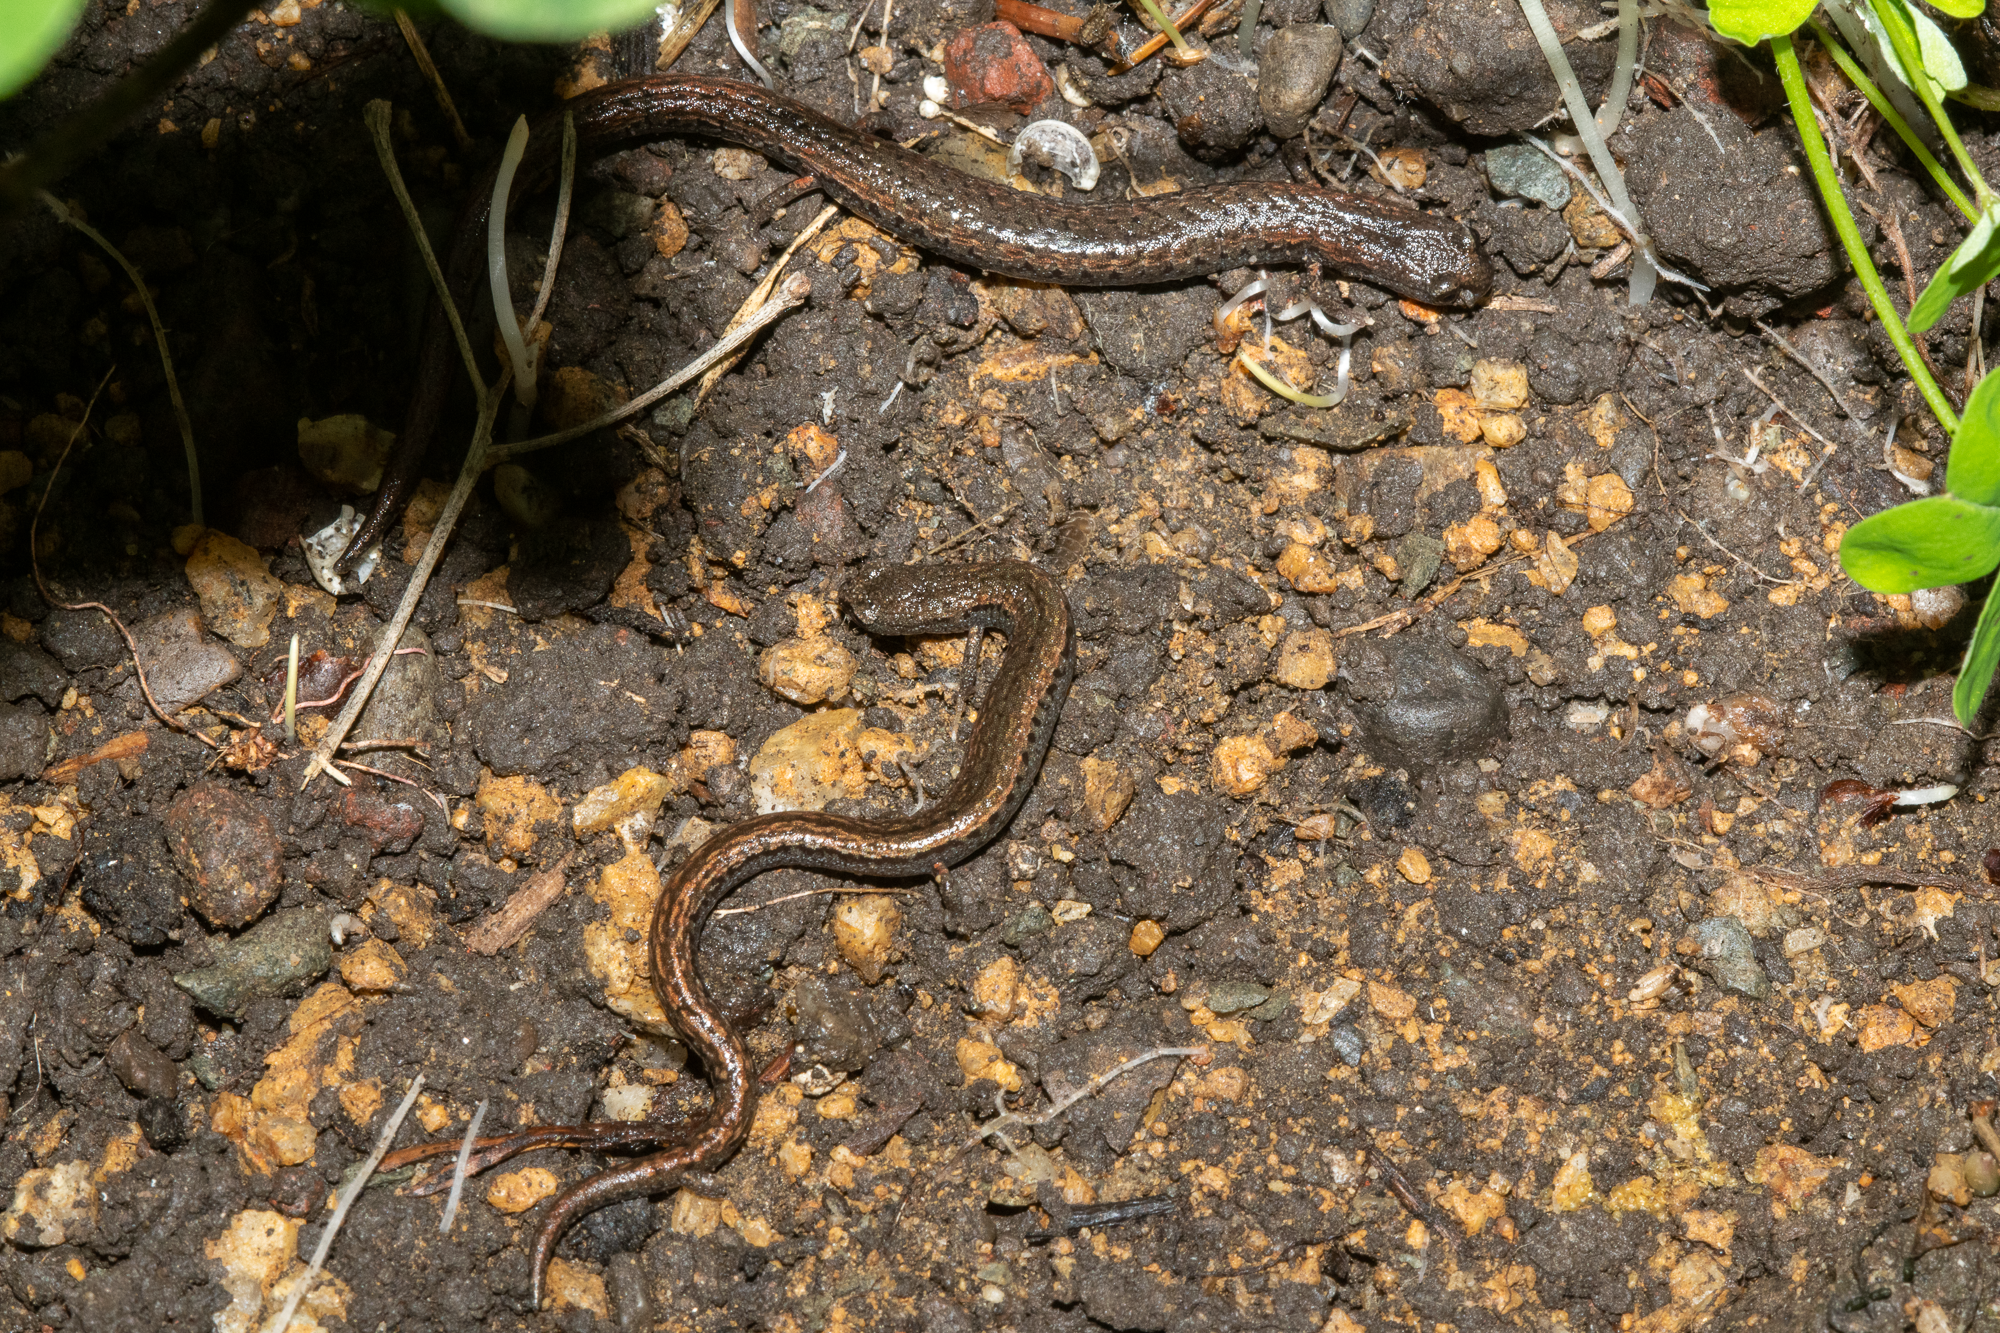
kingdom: Animalia
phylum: Chordata
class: Amphibia
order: Caudata
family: Plethodontidae
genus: Batrachoseps
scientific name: Batrachoseps attenuatus
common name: California slender salamander
